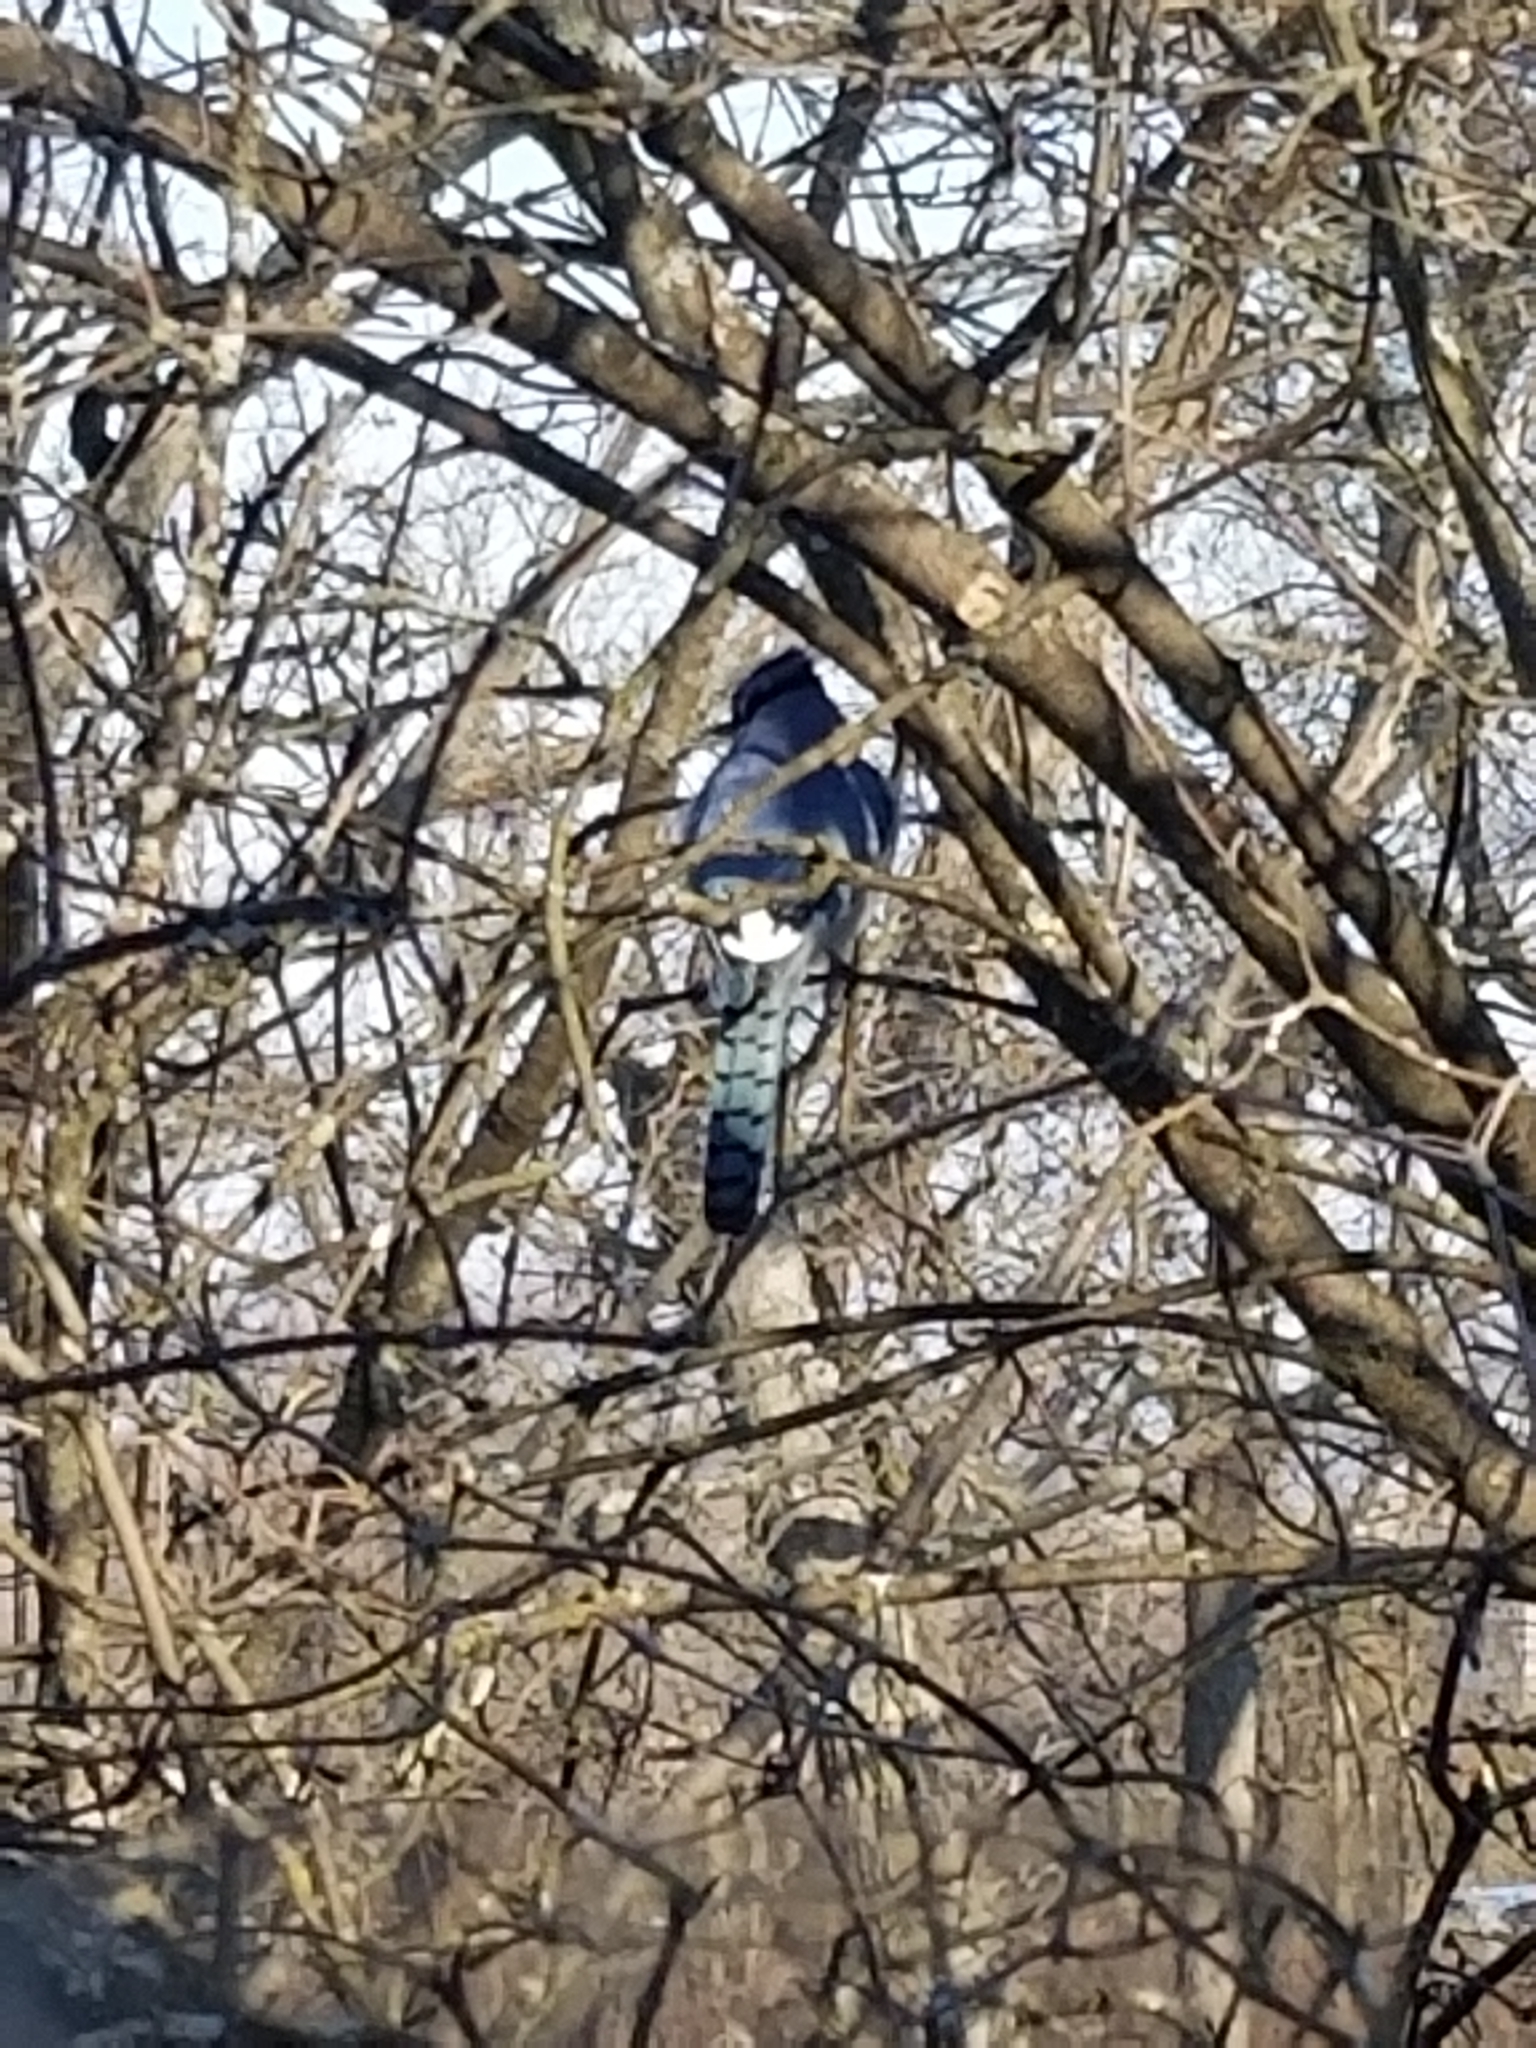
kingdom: Animalia
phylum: Chordata
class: Aves
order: Passeriformes
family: Corvidae
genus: Cyanocitta
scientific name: Cyanocitta cristata
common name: Blue jay
